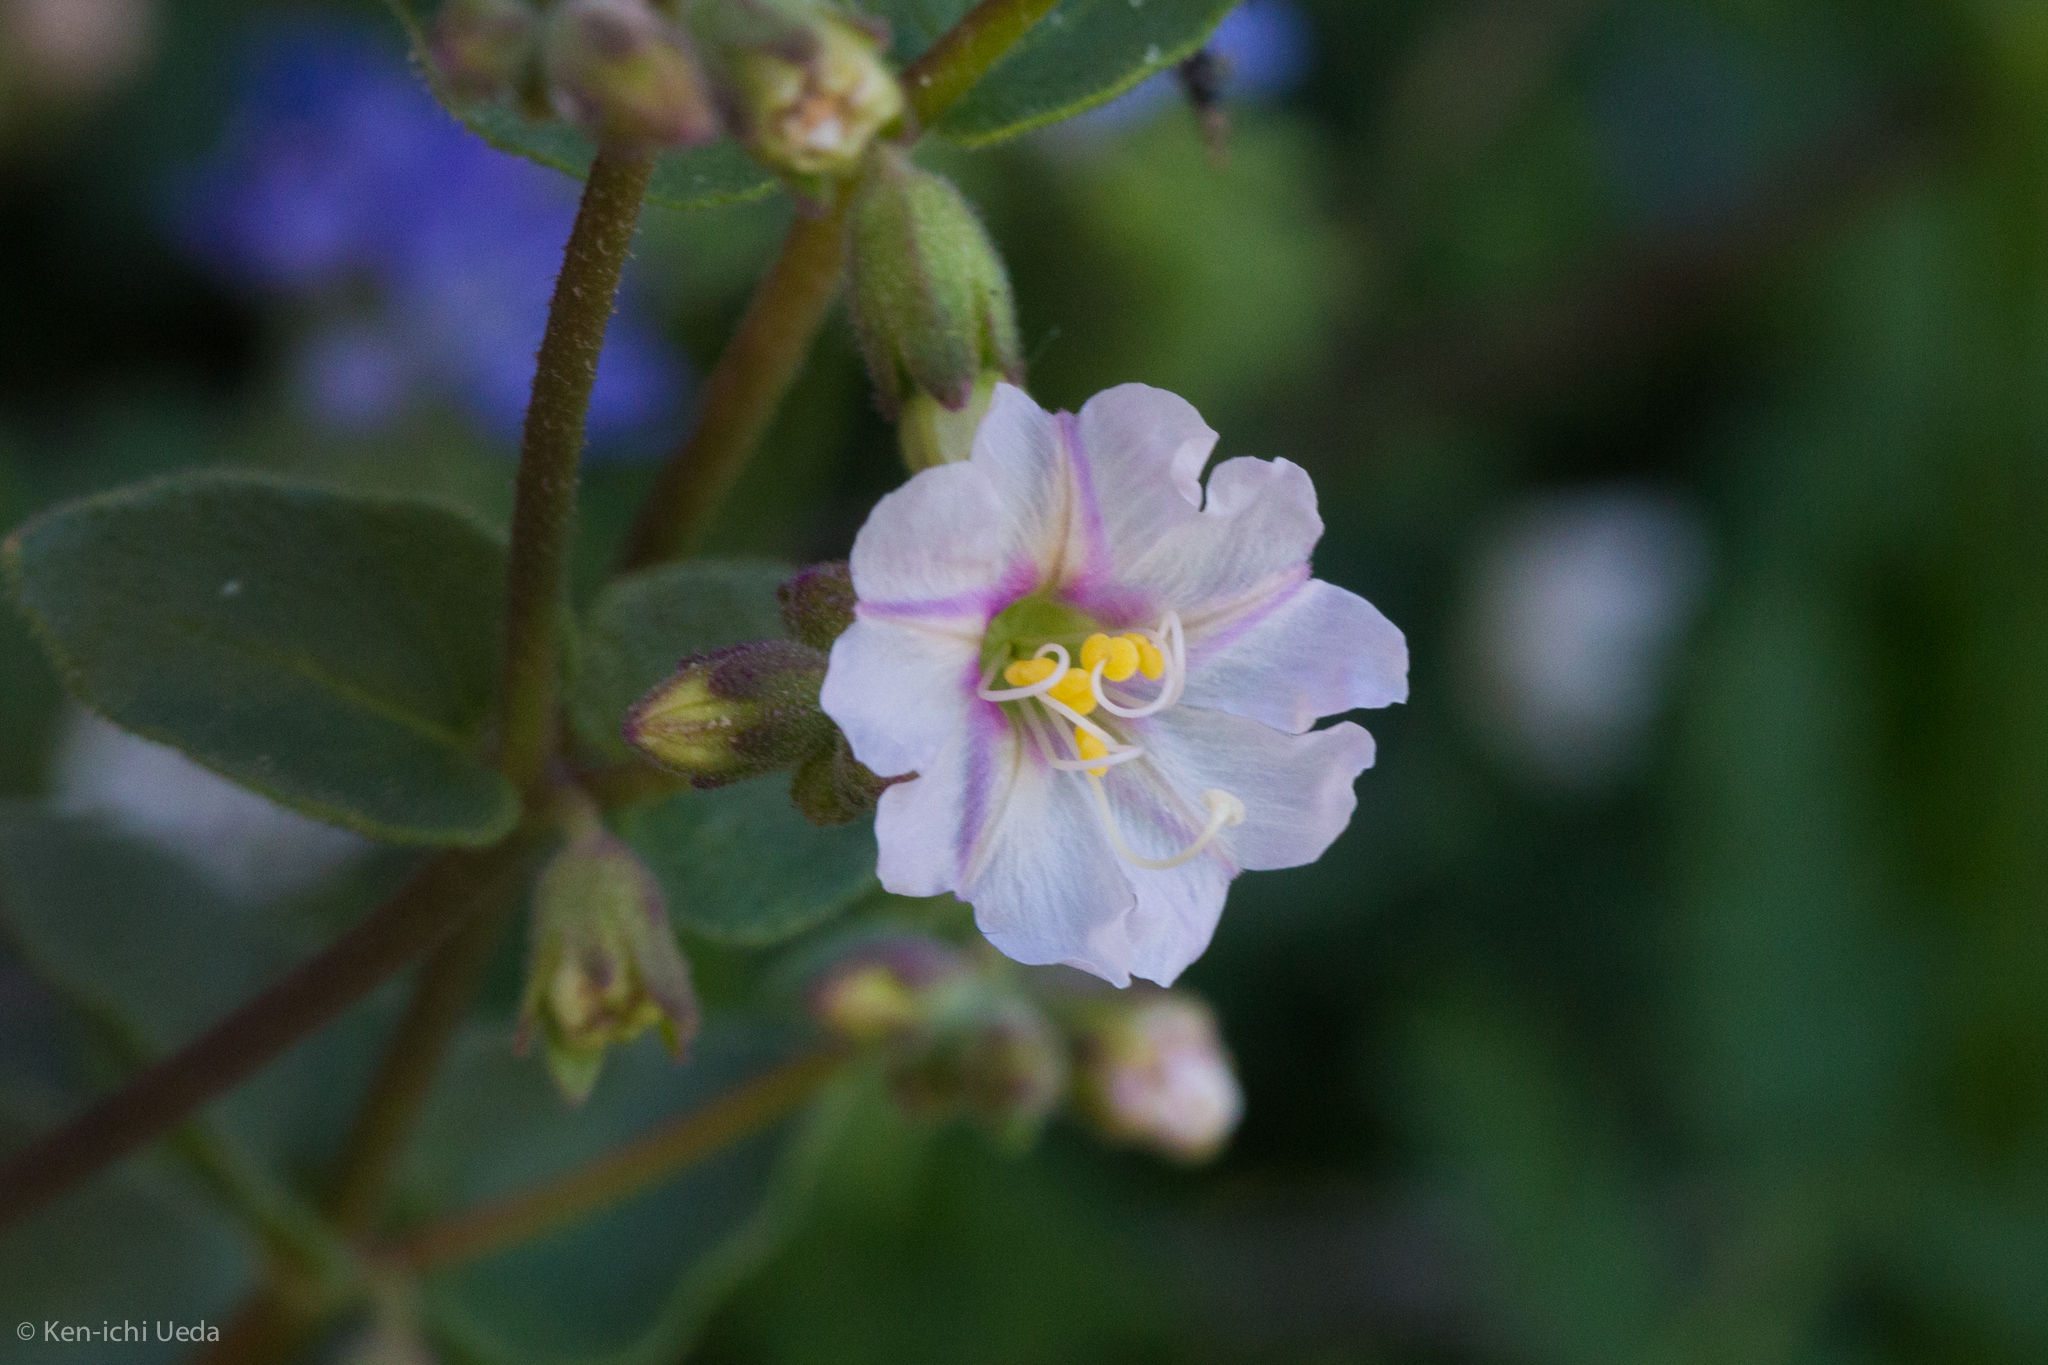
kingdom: Plantae
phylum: Tracheophyta
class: Magnoliopsida
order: Caryophyllales
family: Nyctaginaceae
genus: Mirabilis
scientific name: Mirabilis laevis
